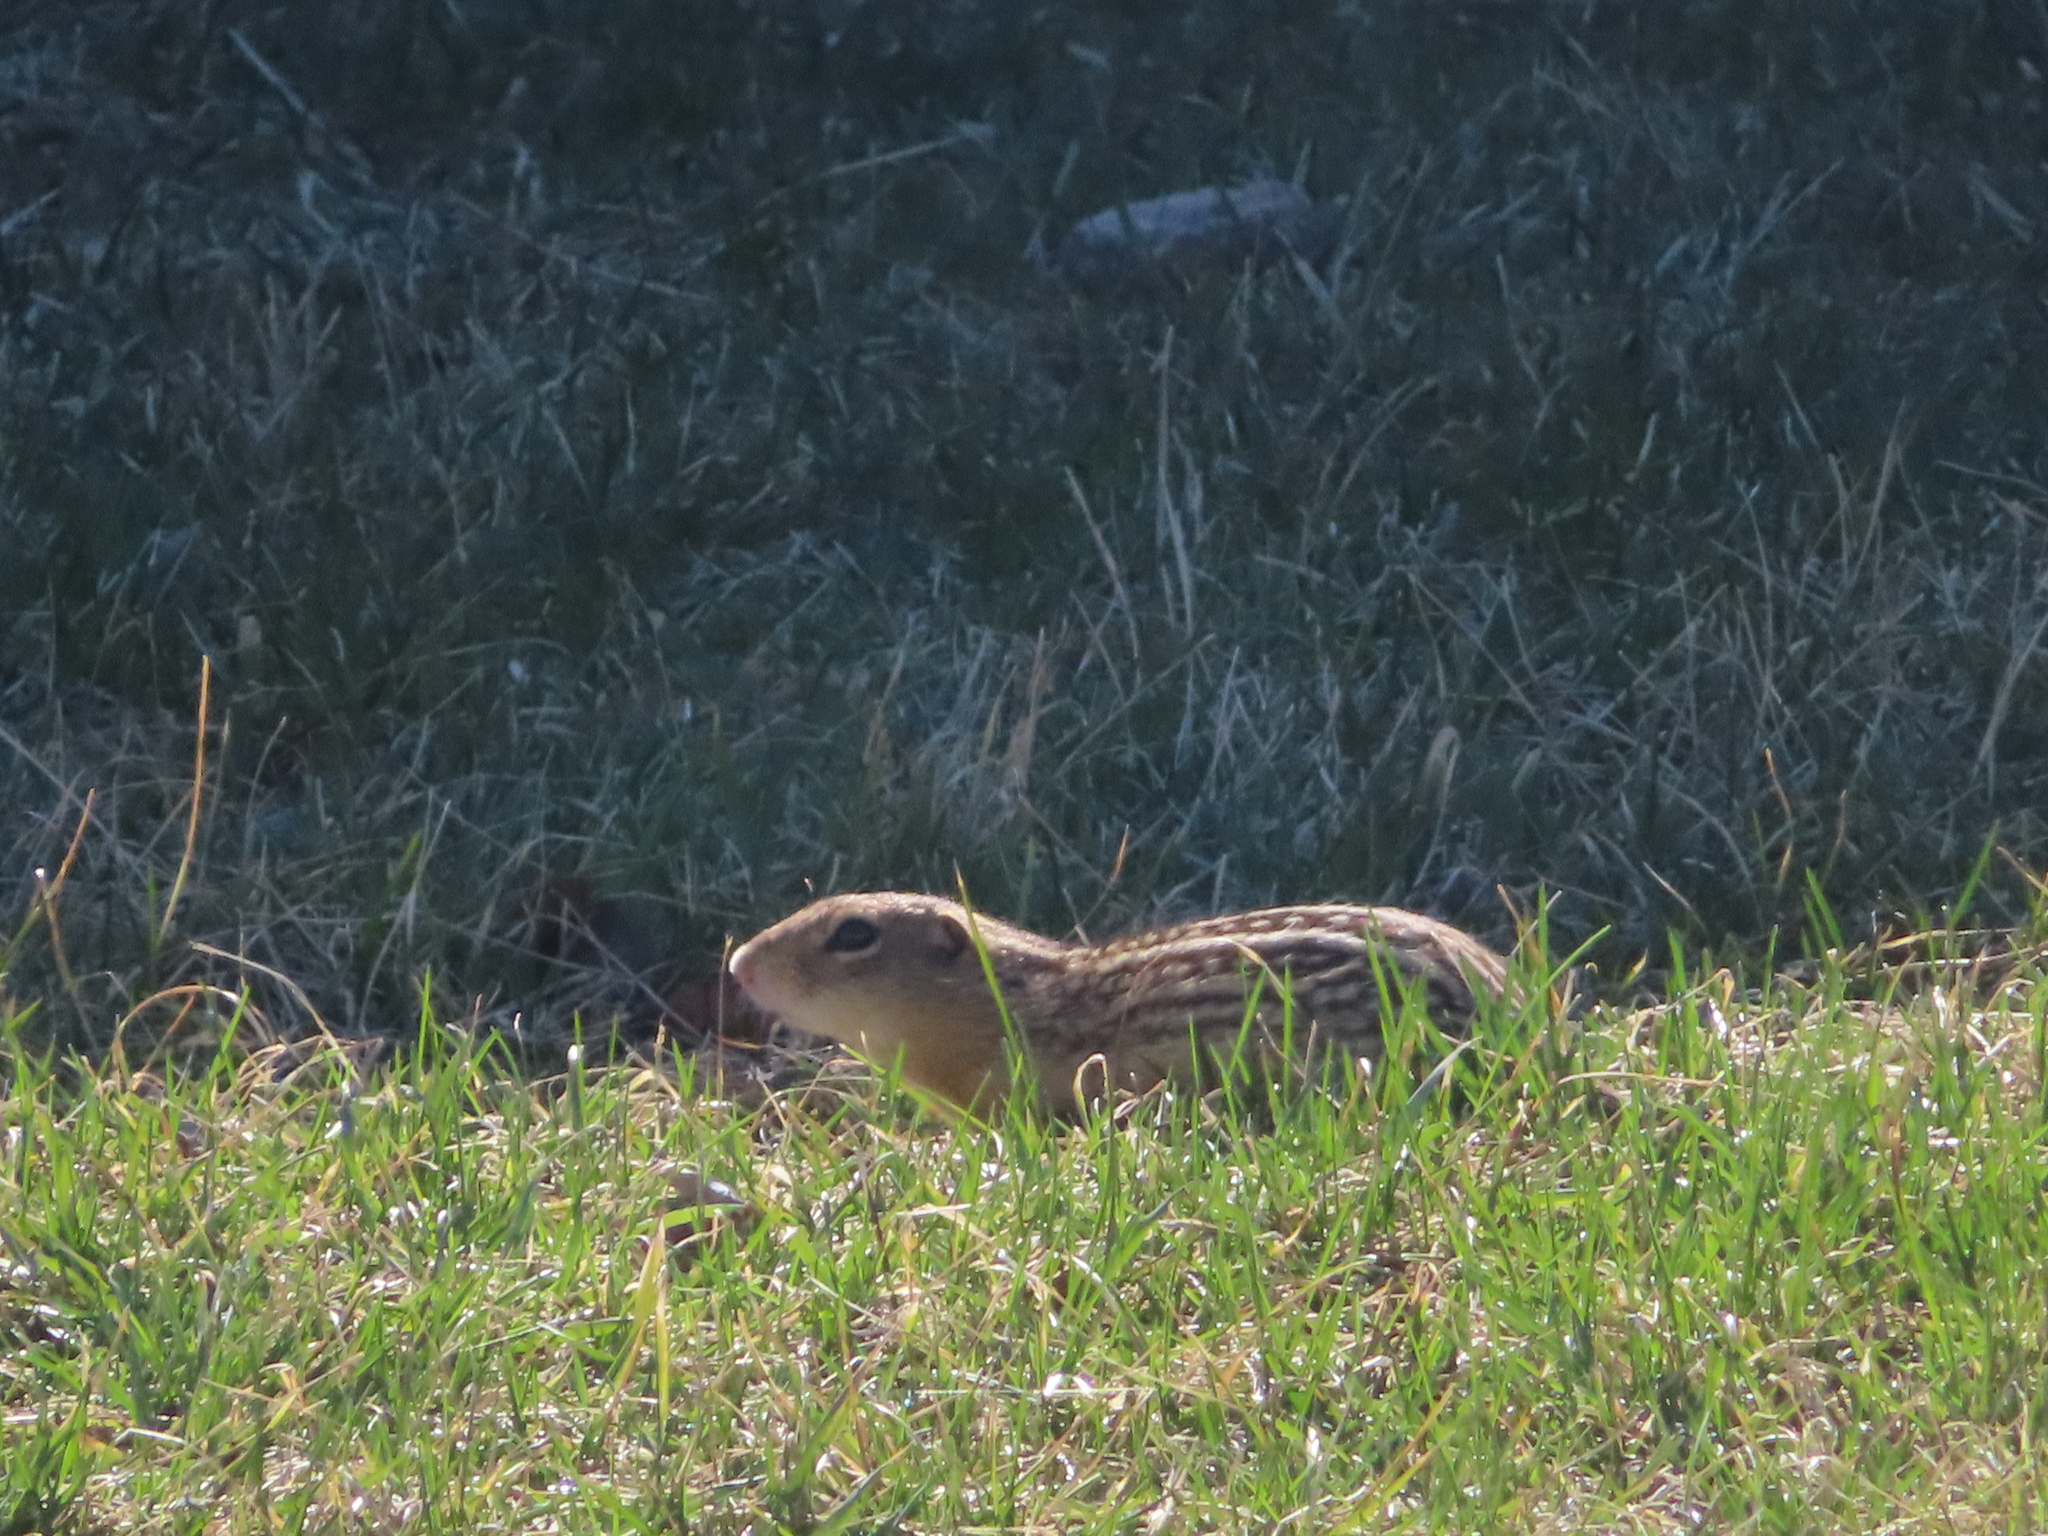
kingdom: Animalia
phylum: Chordata
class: Mammalia
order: Rodentia
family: Sciuridae
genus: Ictidomys
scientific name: Ictidomys tridecemlineatus
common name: Thirteen-lined ground squirrel
